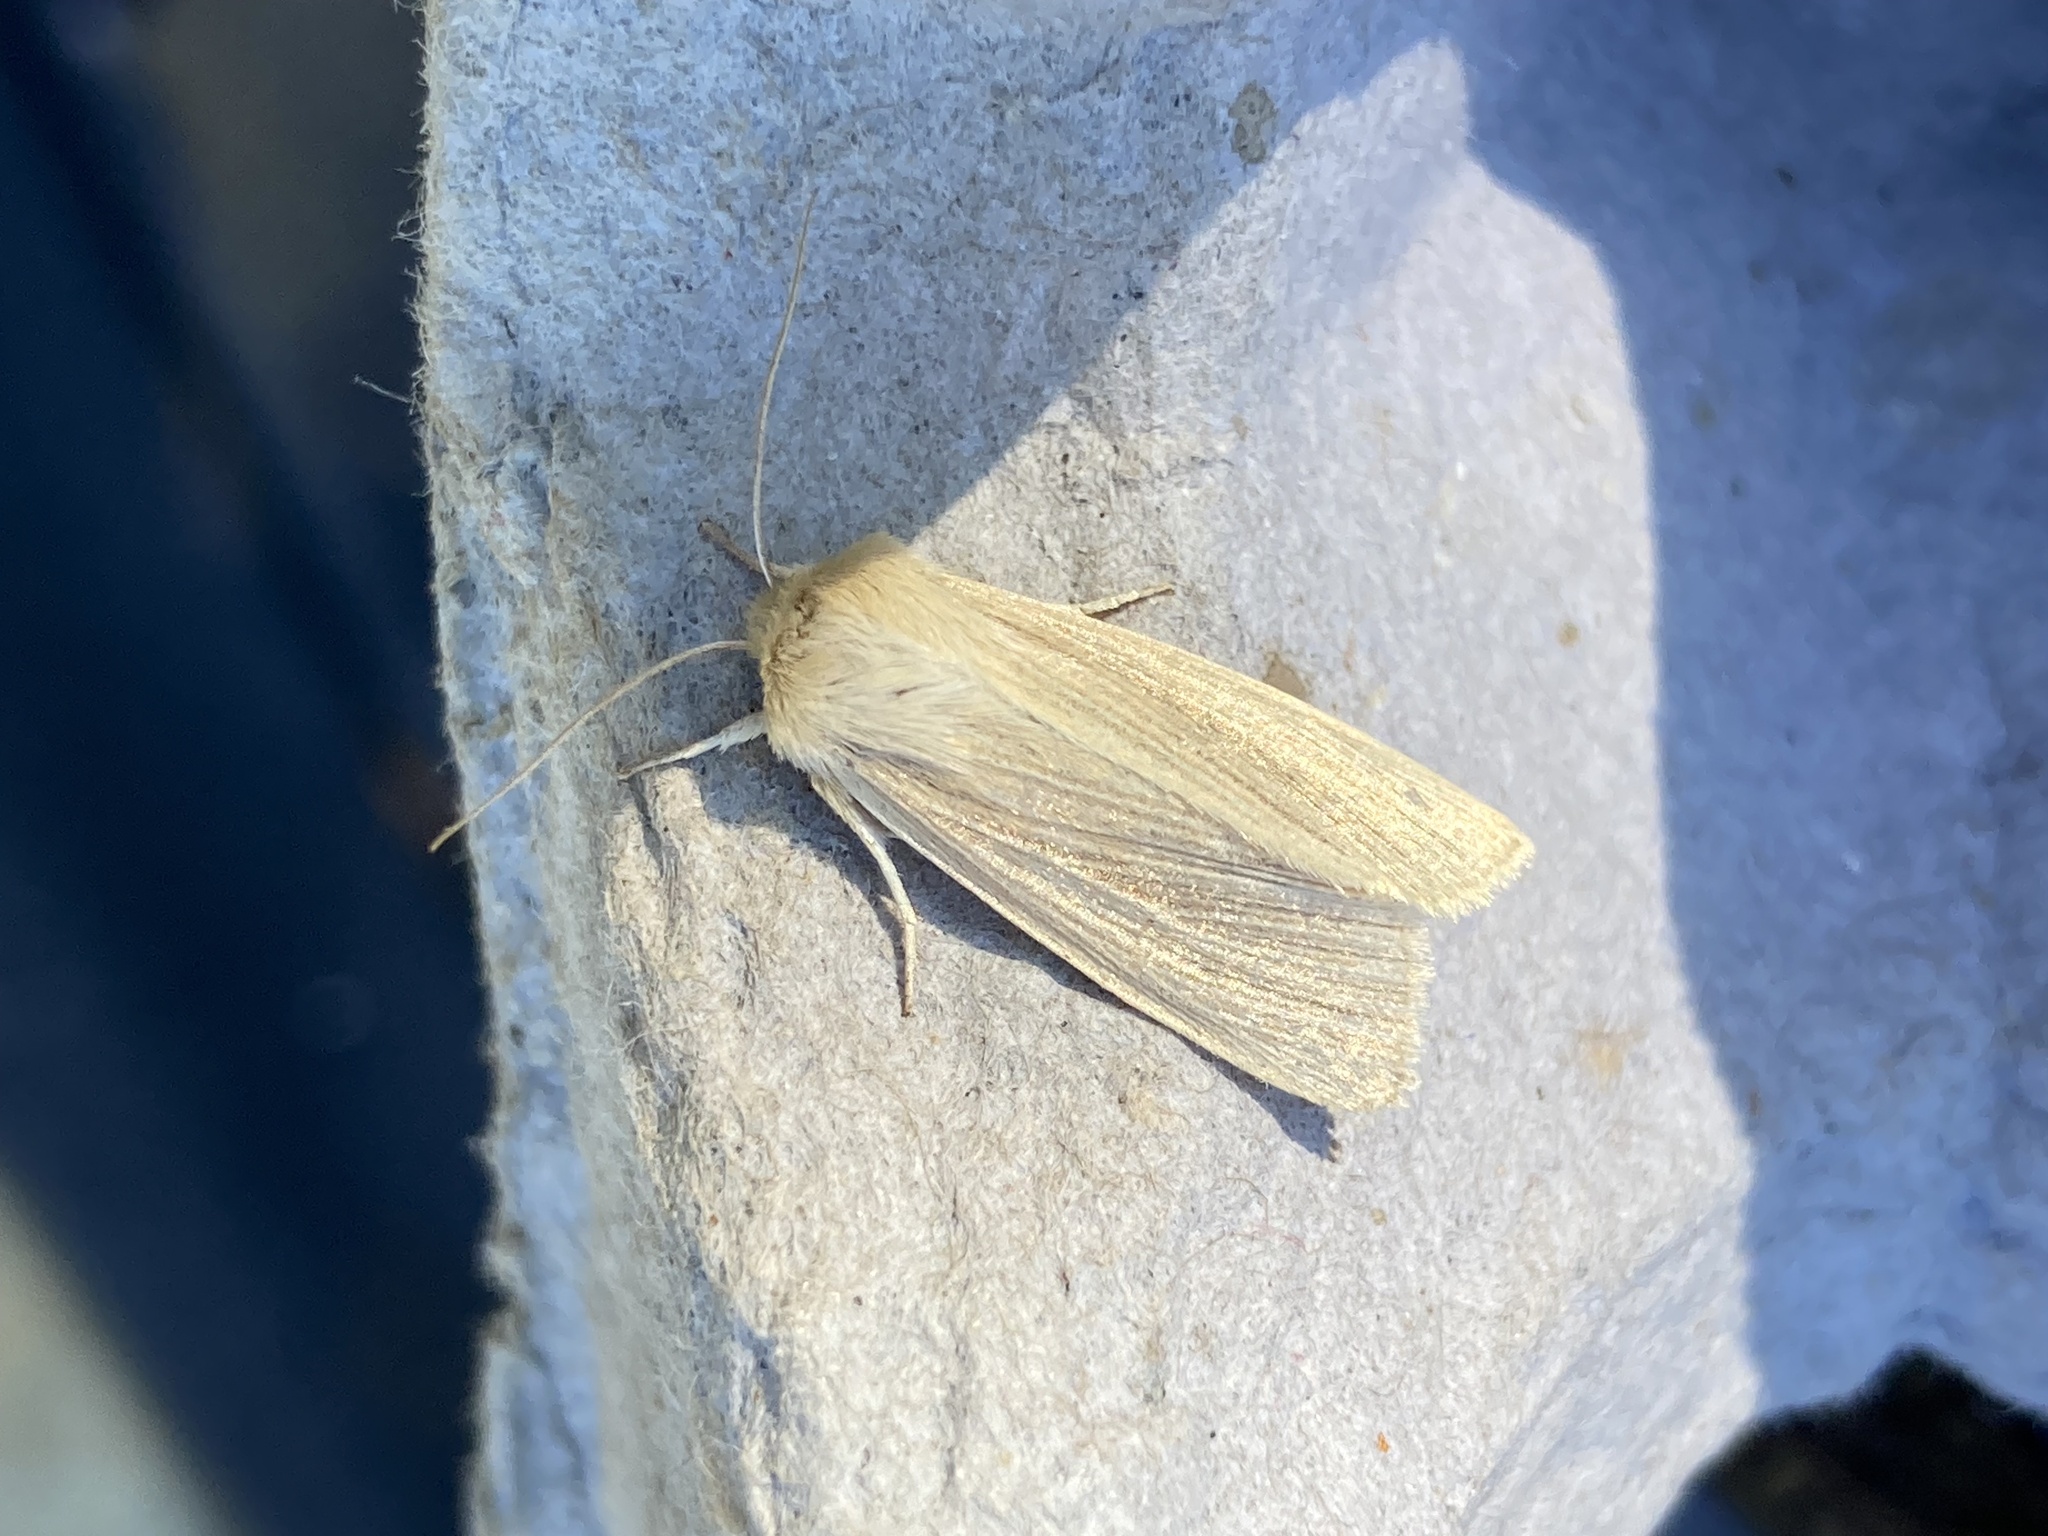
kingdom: Animalia
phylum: Arthropoda
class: Insecta
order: Lepidoptera
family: Noctuidae
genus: Mythimna
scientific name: Mythimna pallens
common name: Common wainscot
